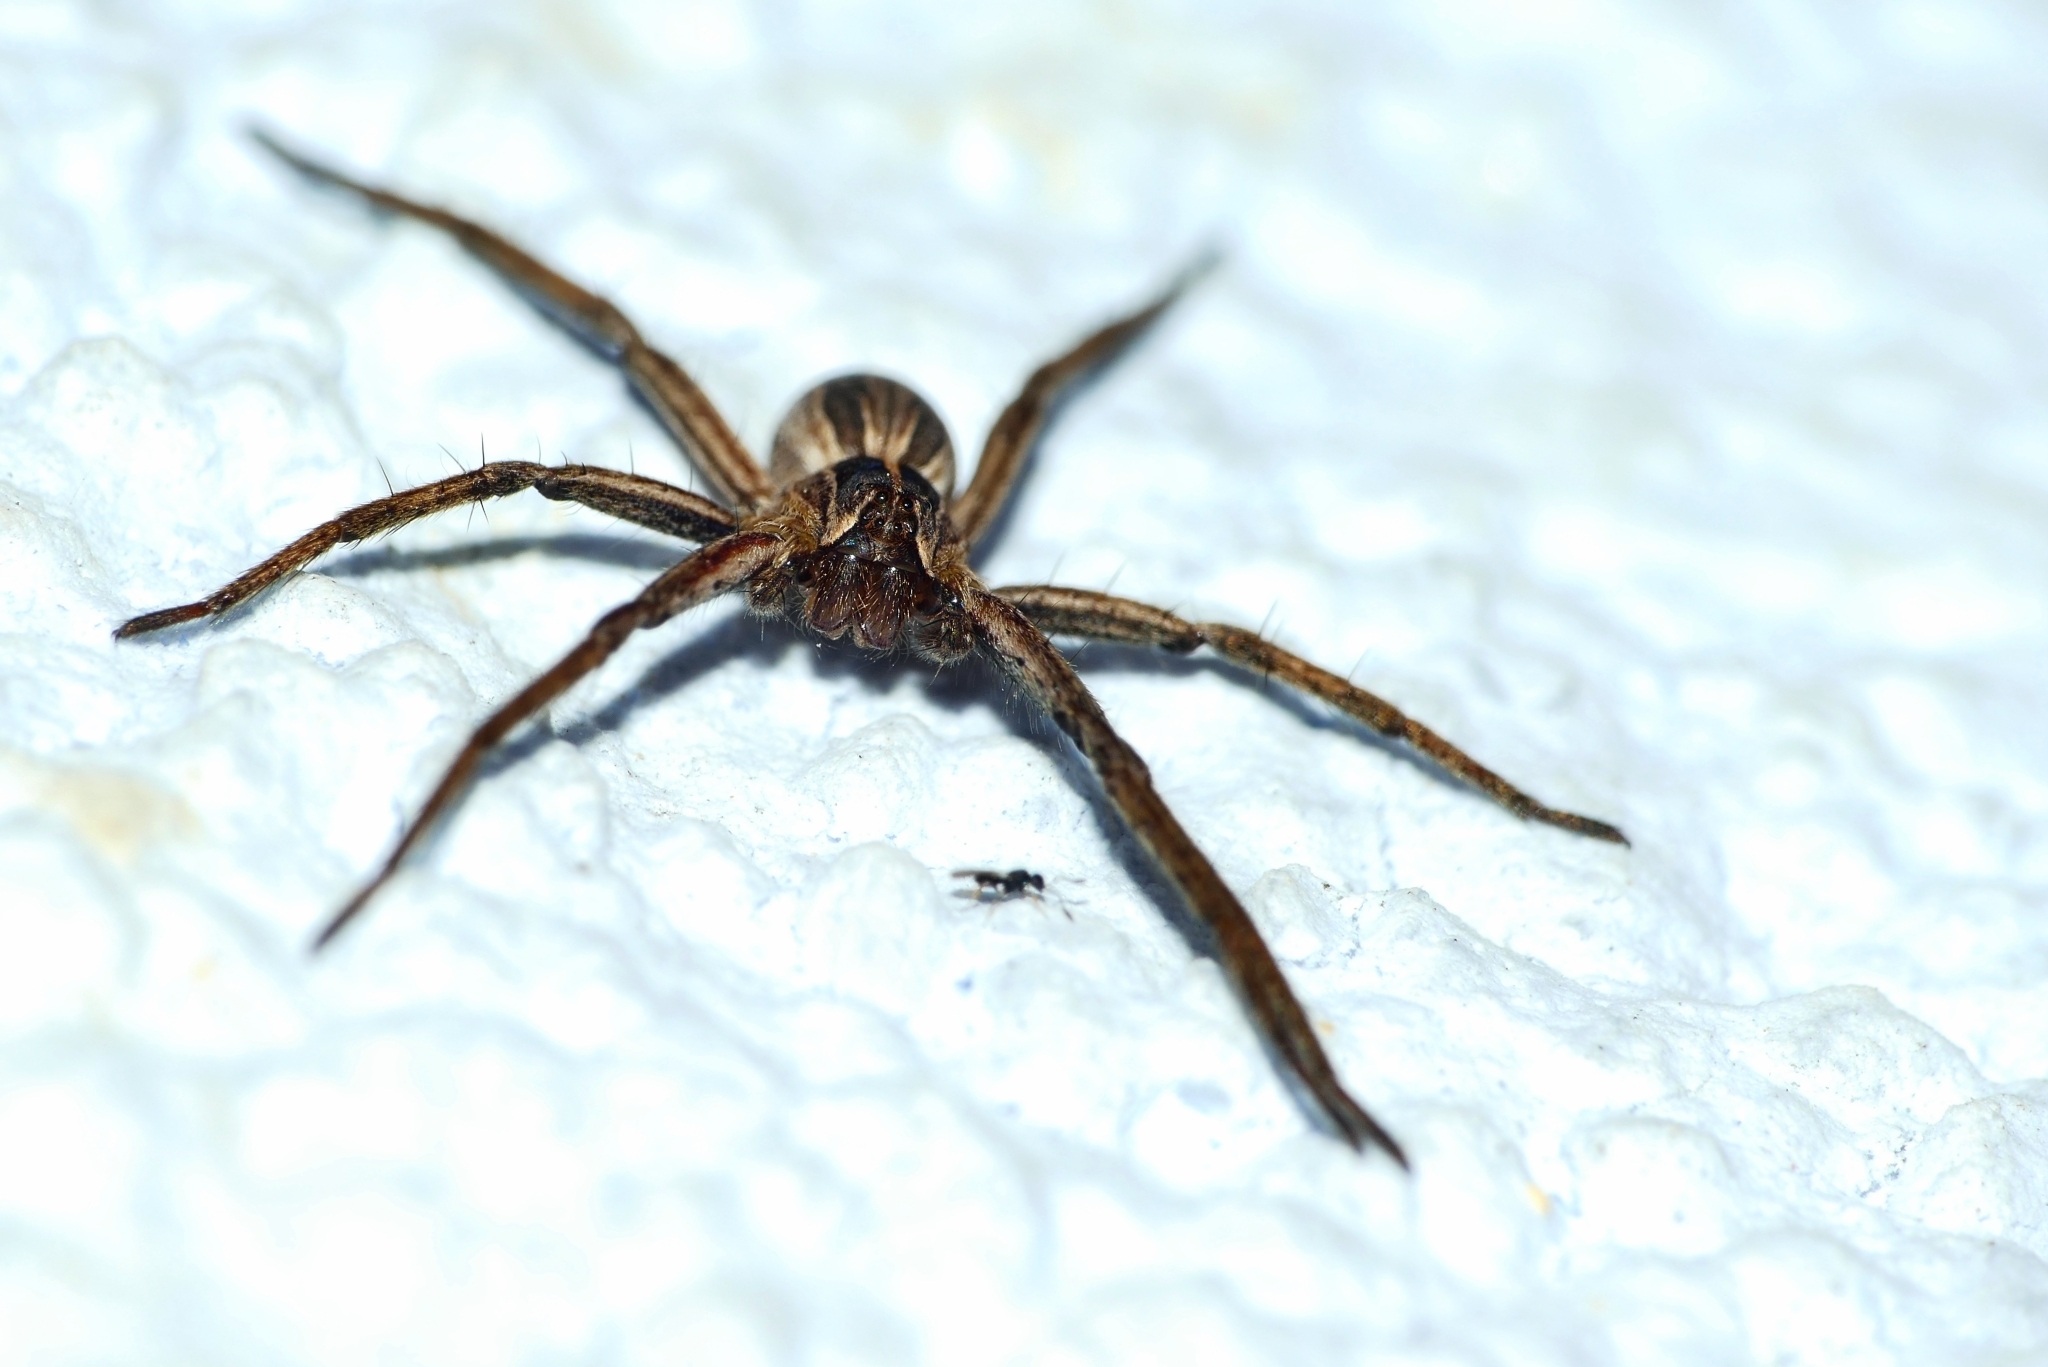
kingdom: Animalia
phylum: Arthropoda
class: Arachnida
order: Araneae
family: Pisauridae
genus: Pisaura
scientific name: Pisaura mirabilis
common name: Tent spider
